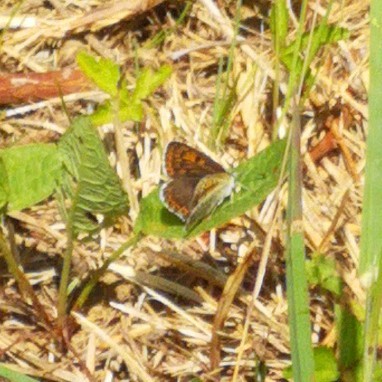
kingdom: Animalia
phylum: Arthropoda
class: Insecta
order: Lepidoptera
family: Lycaenidae
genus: Loweia
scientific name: Loweia tityrus
